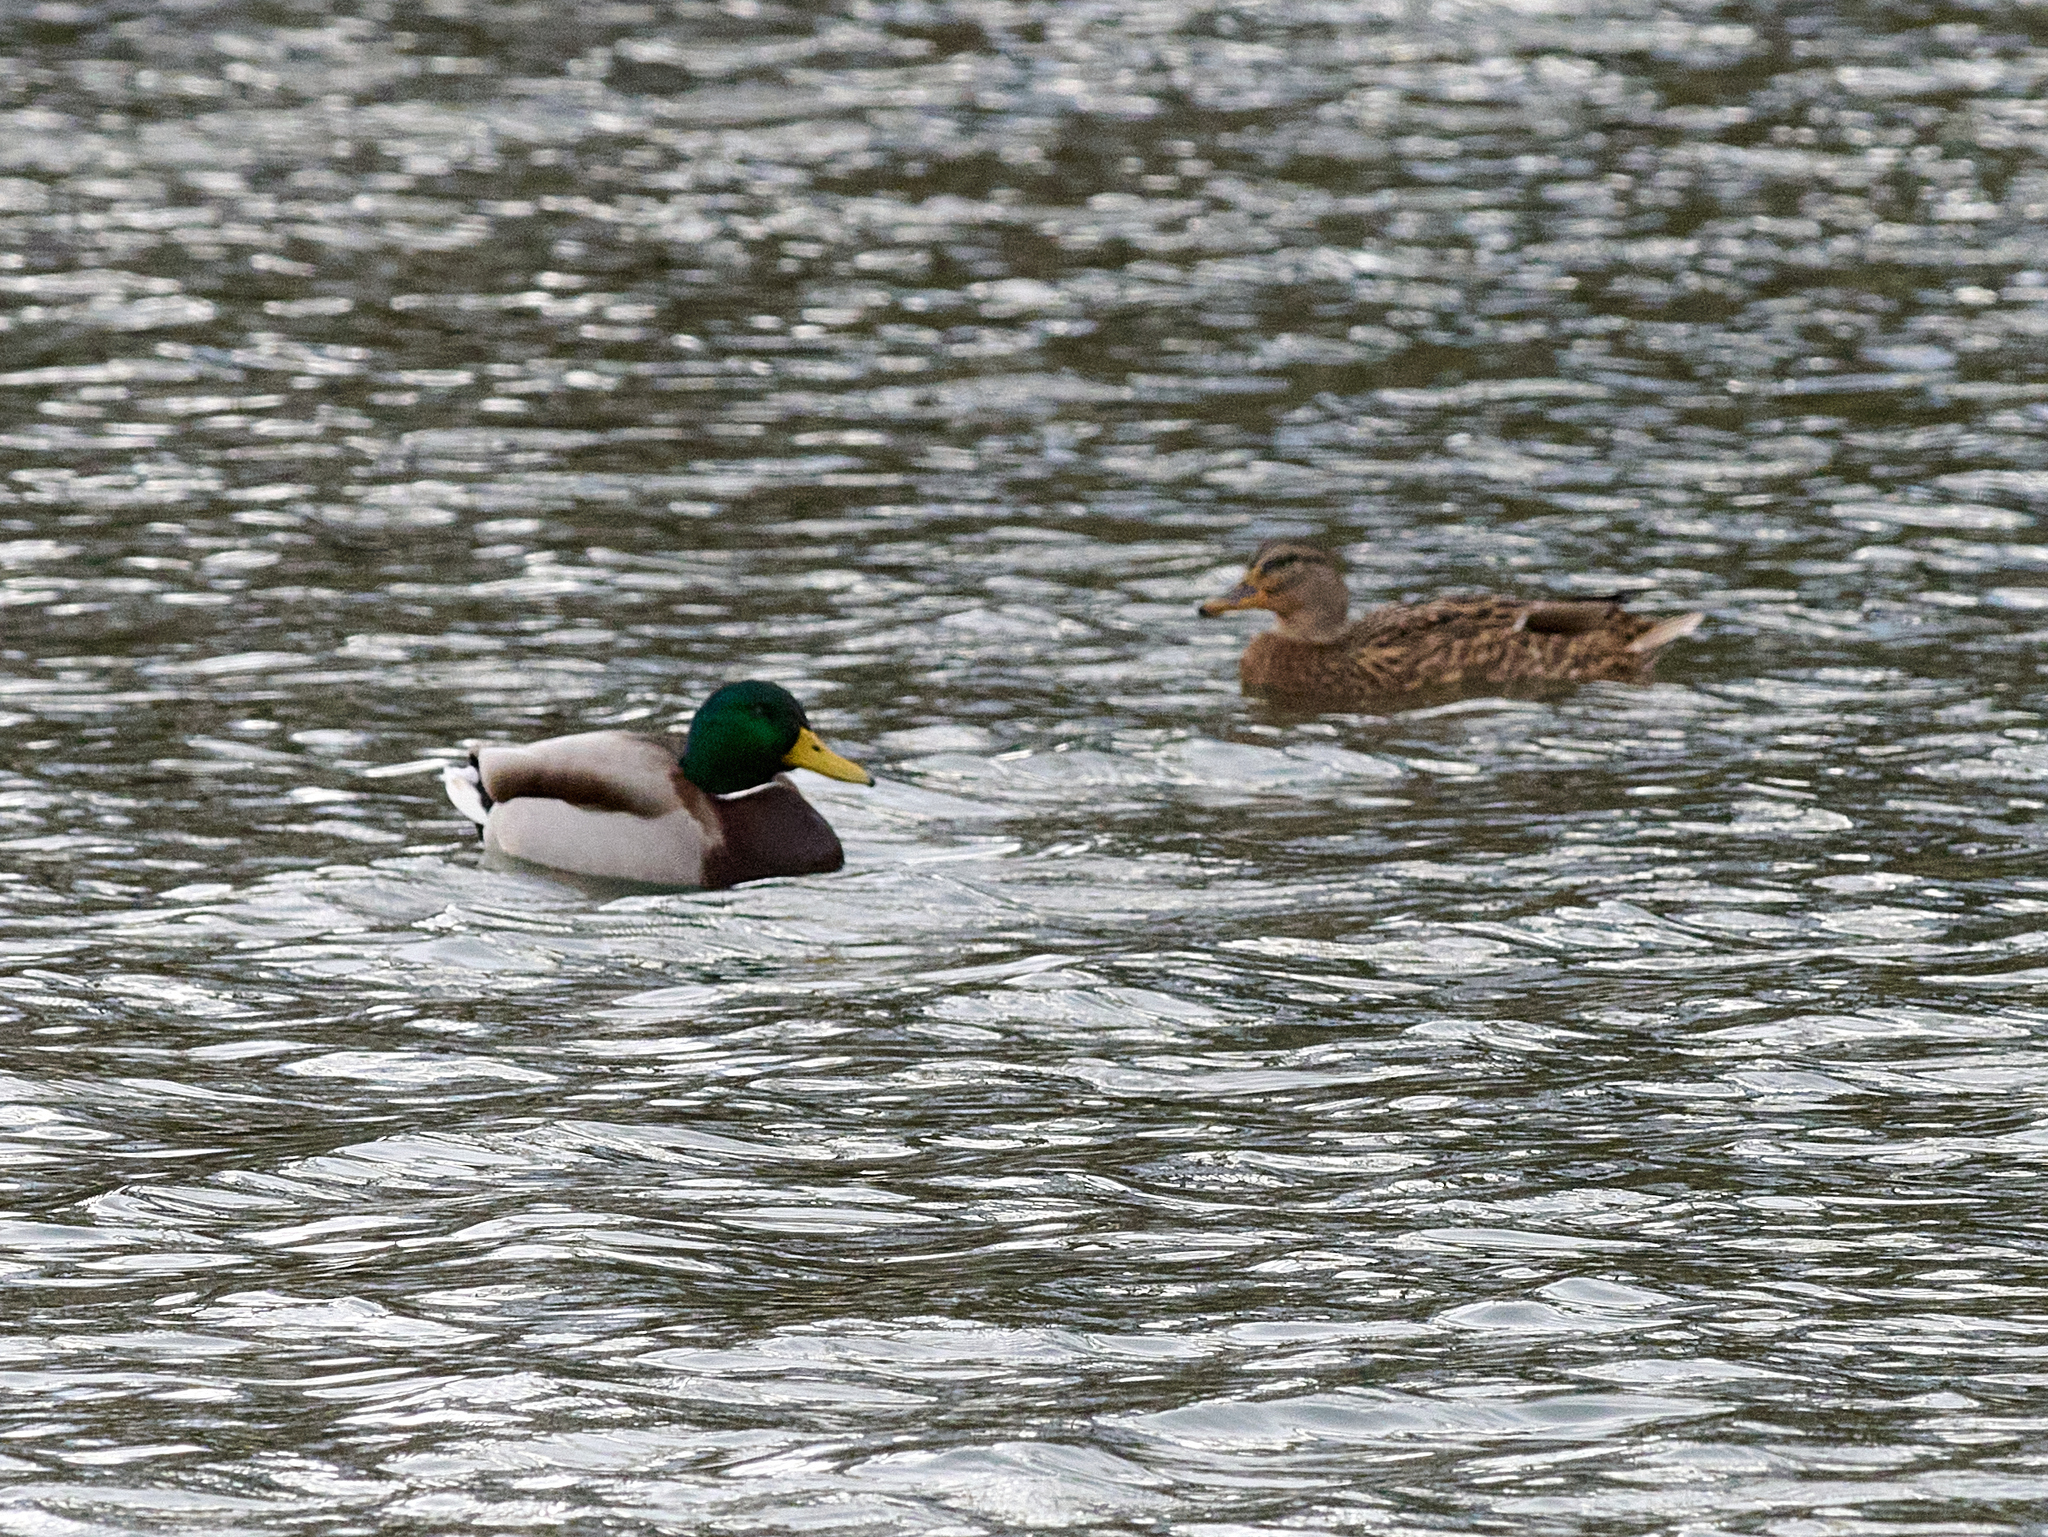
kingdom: Animalia
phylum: Chordata
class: Aves
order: Anseriformes
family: Anatidae
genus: Anas
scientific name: Anas platyrhynchos
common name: Mallard
